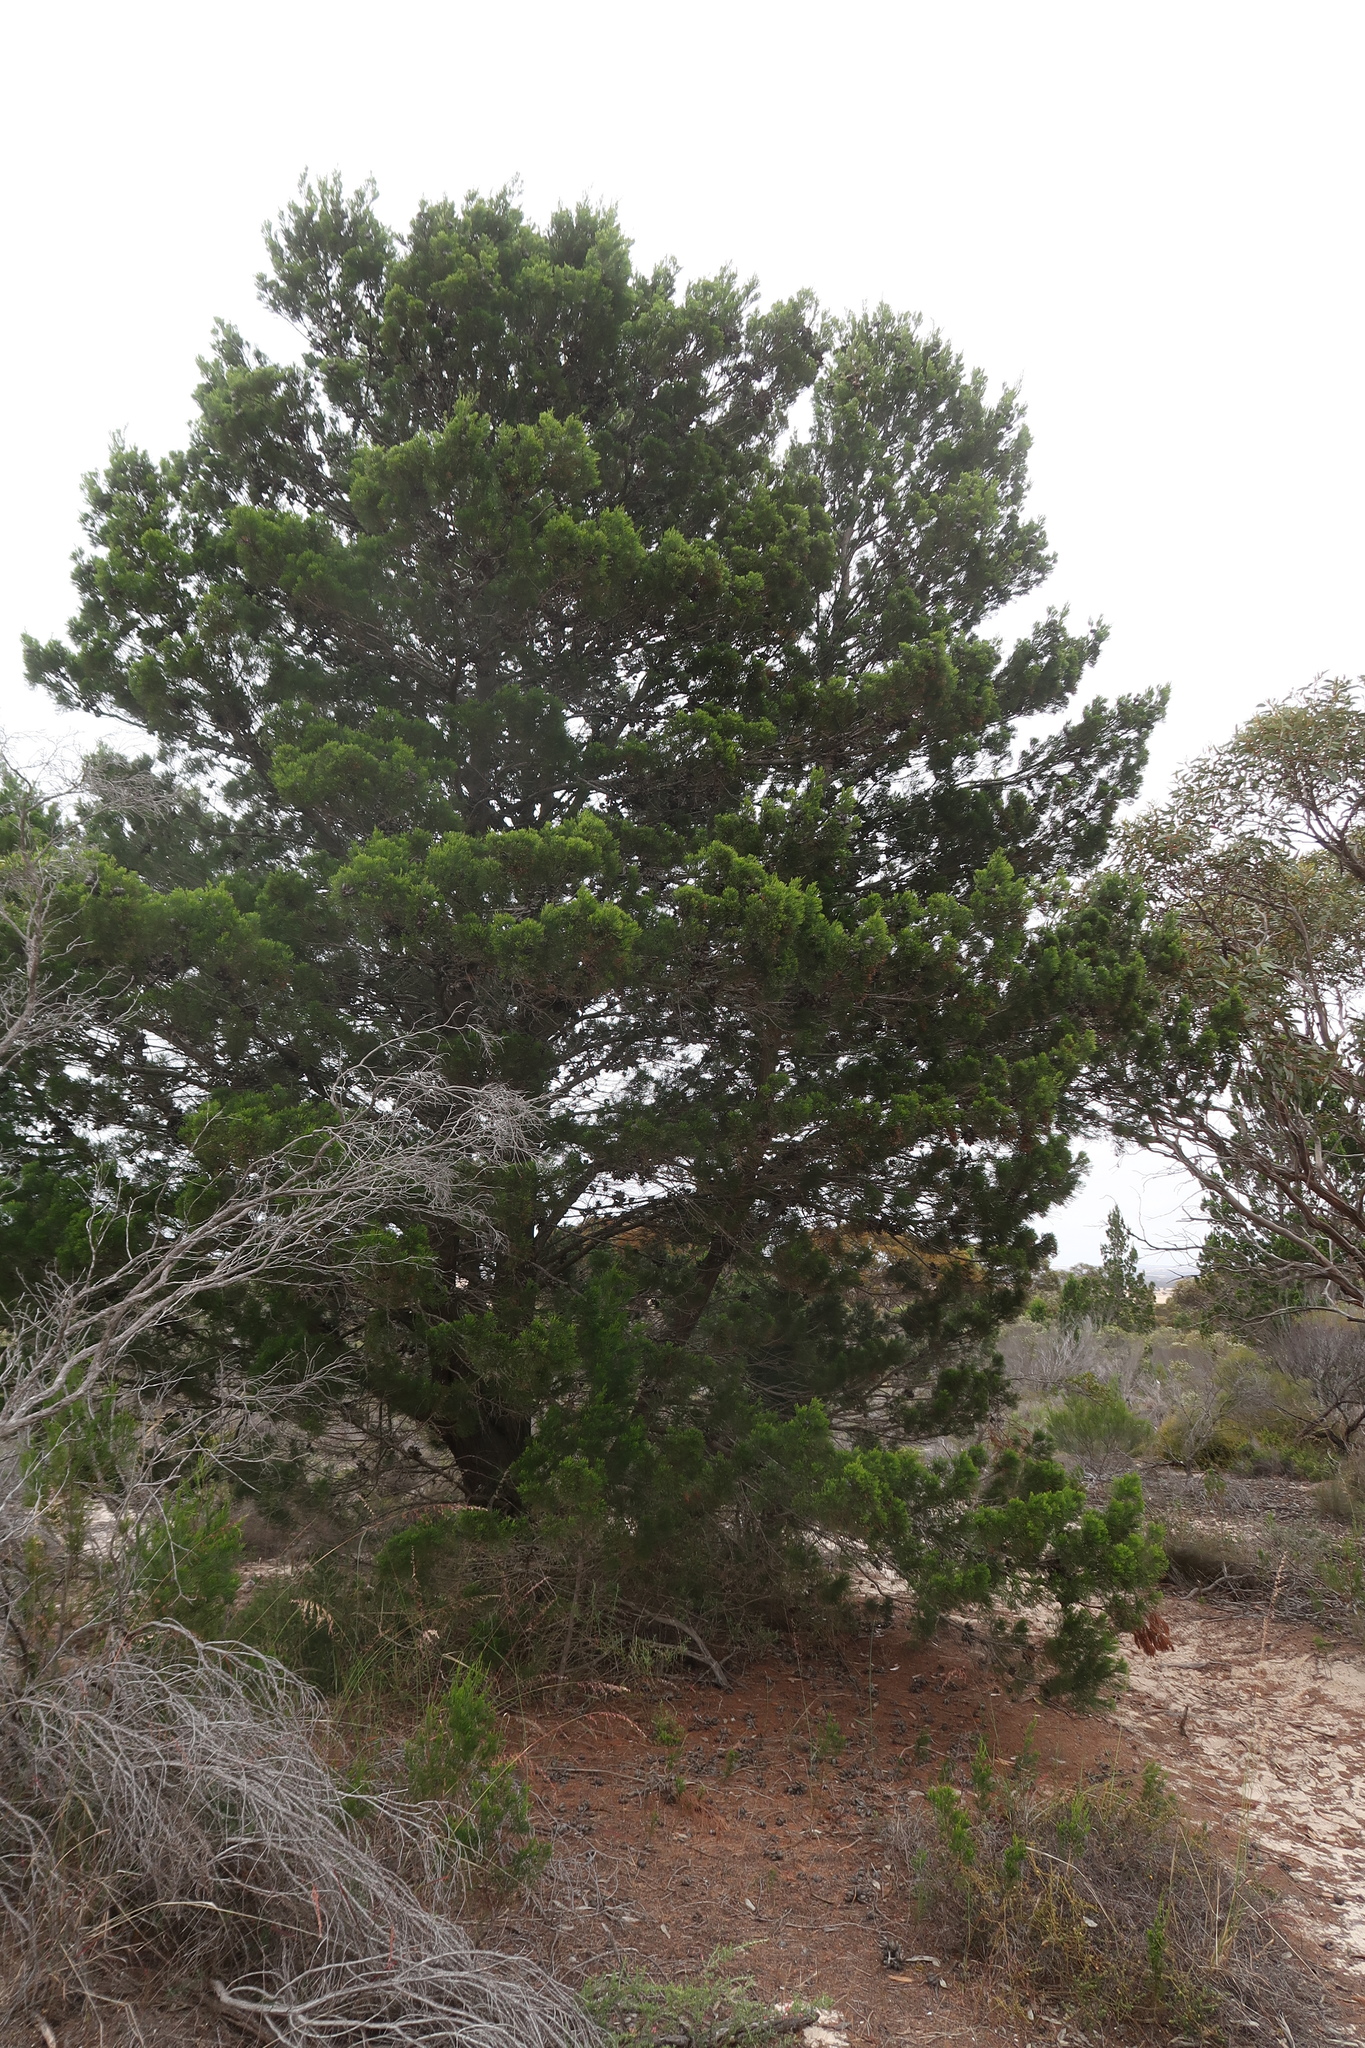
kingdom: Plantae
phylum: Tracheophyta
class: Pinopsida
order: Pinales
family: Cupressaceae
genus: Callitris
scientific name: Callitris preissii
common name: Mallee pine
